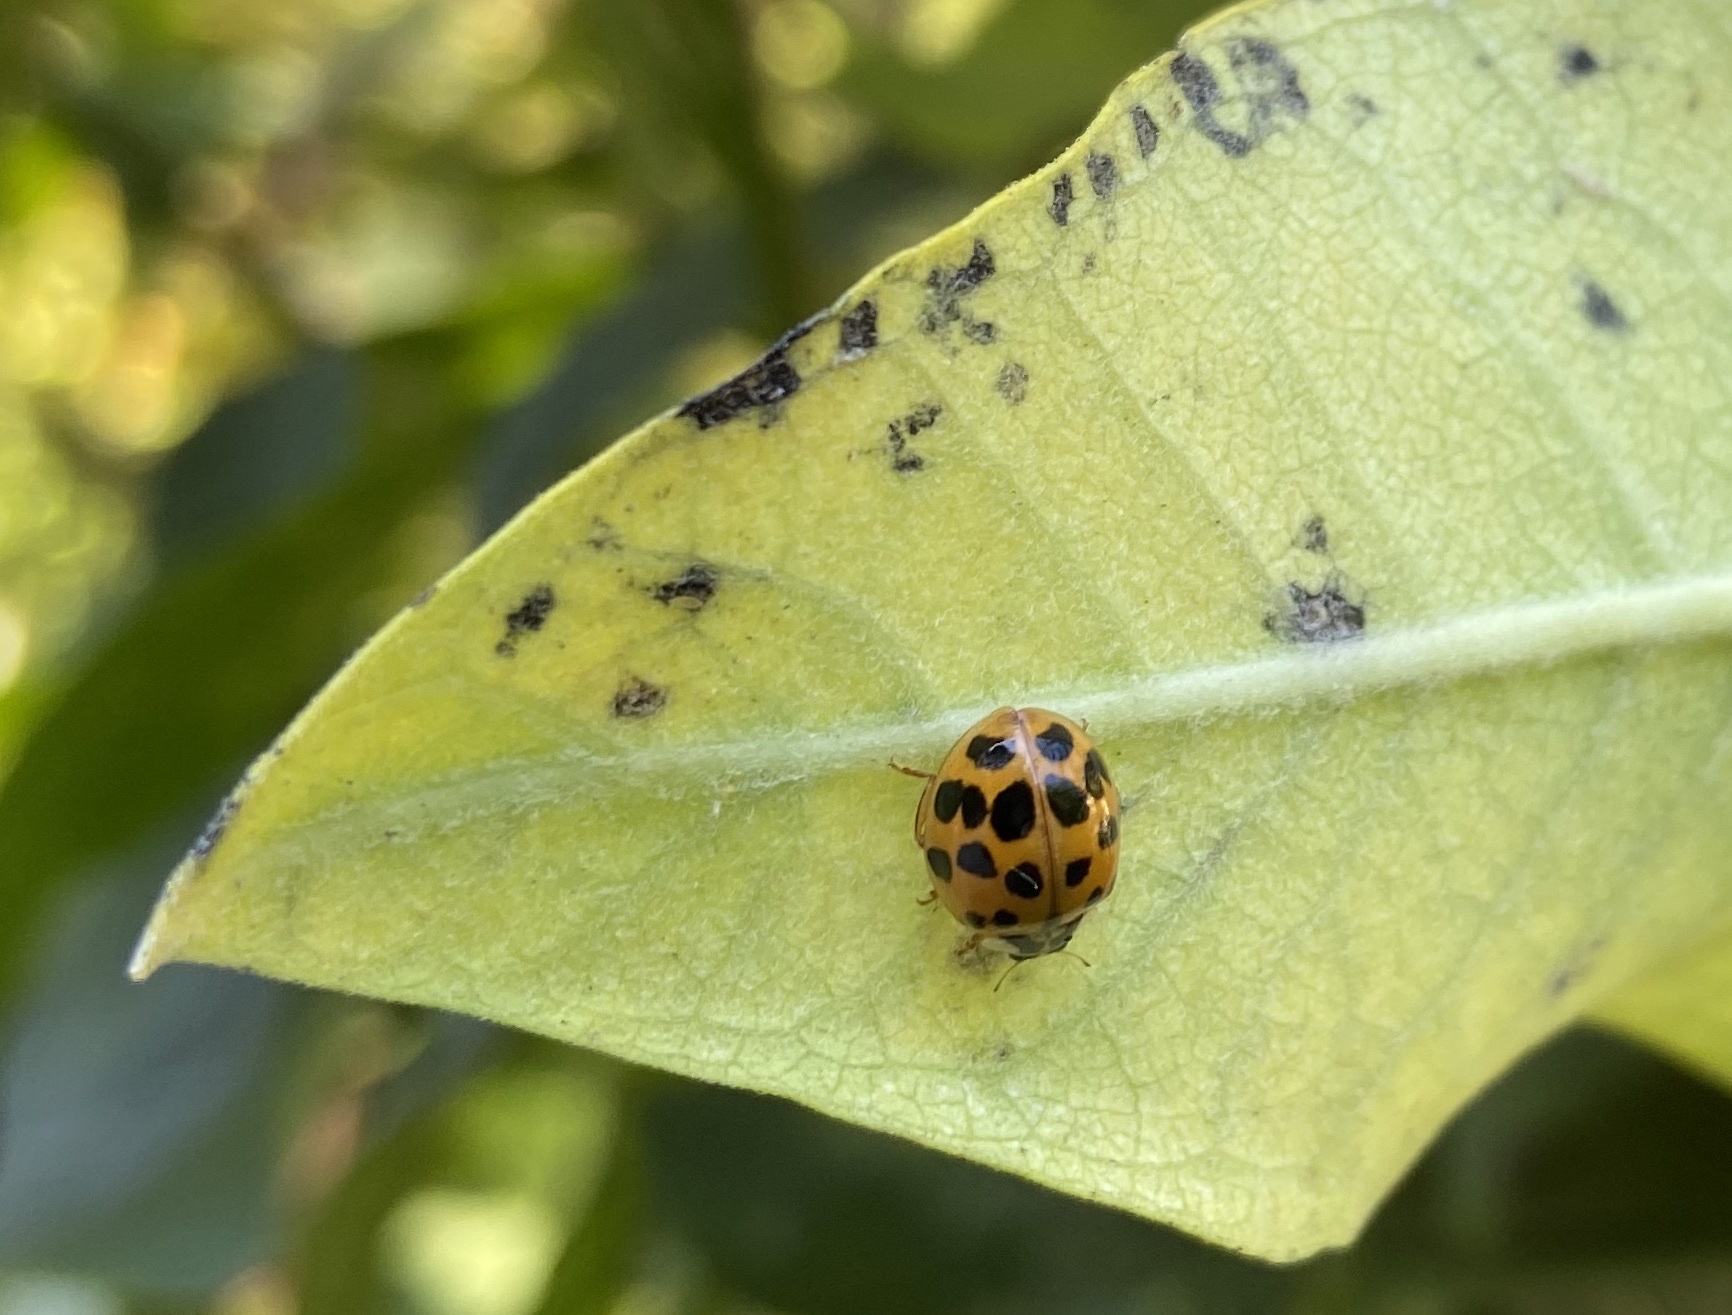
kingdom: Animalia
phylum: Arthropoda
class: Insecta
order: Coleoptera
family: Coccinellidae
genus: Harmonia
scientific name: Harmonia axyridis
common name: Harlequin ladybird
